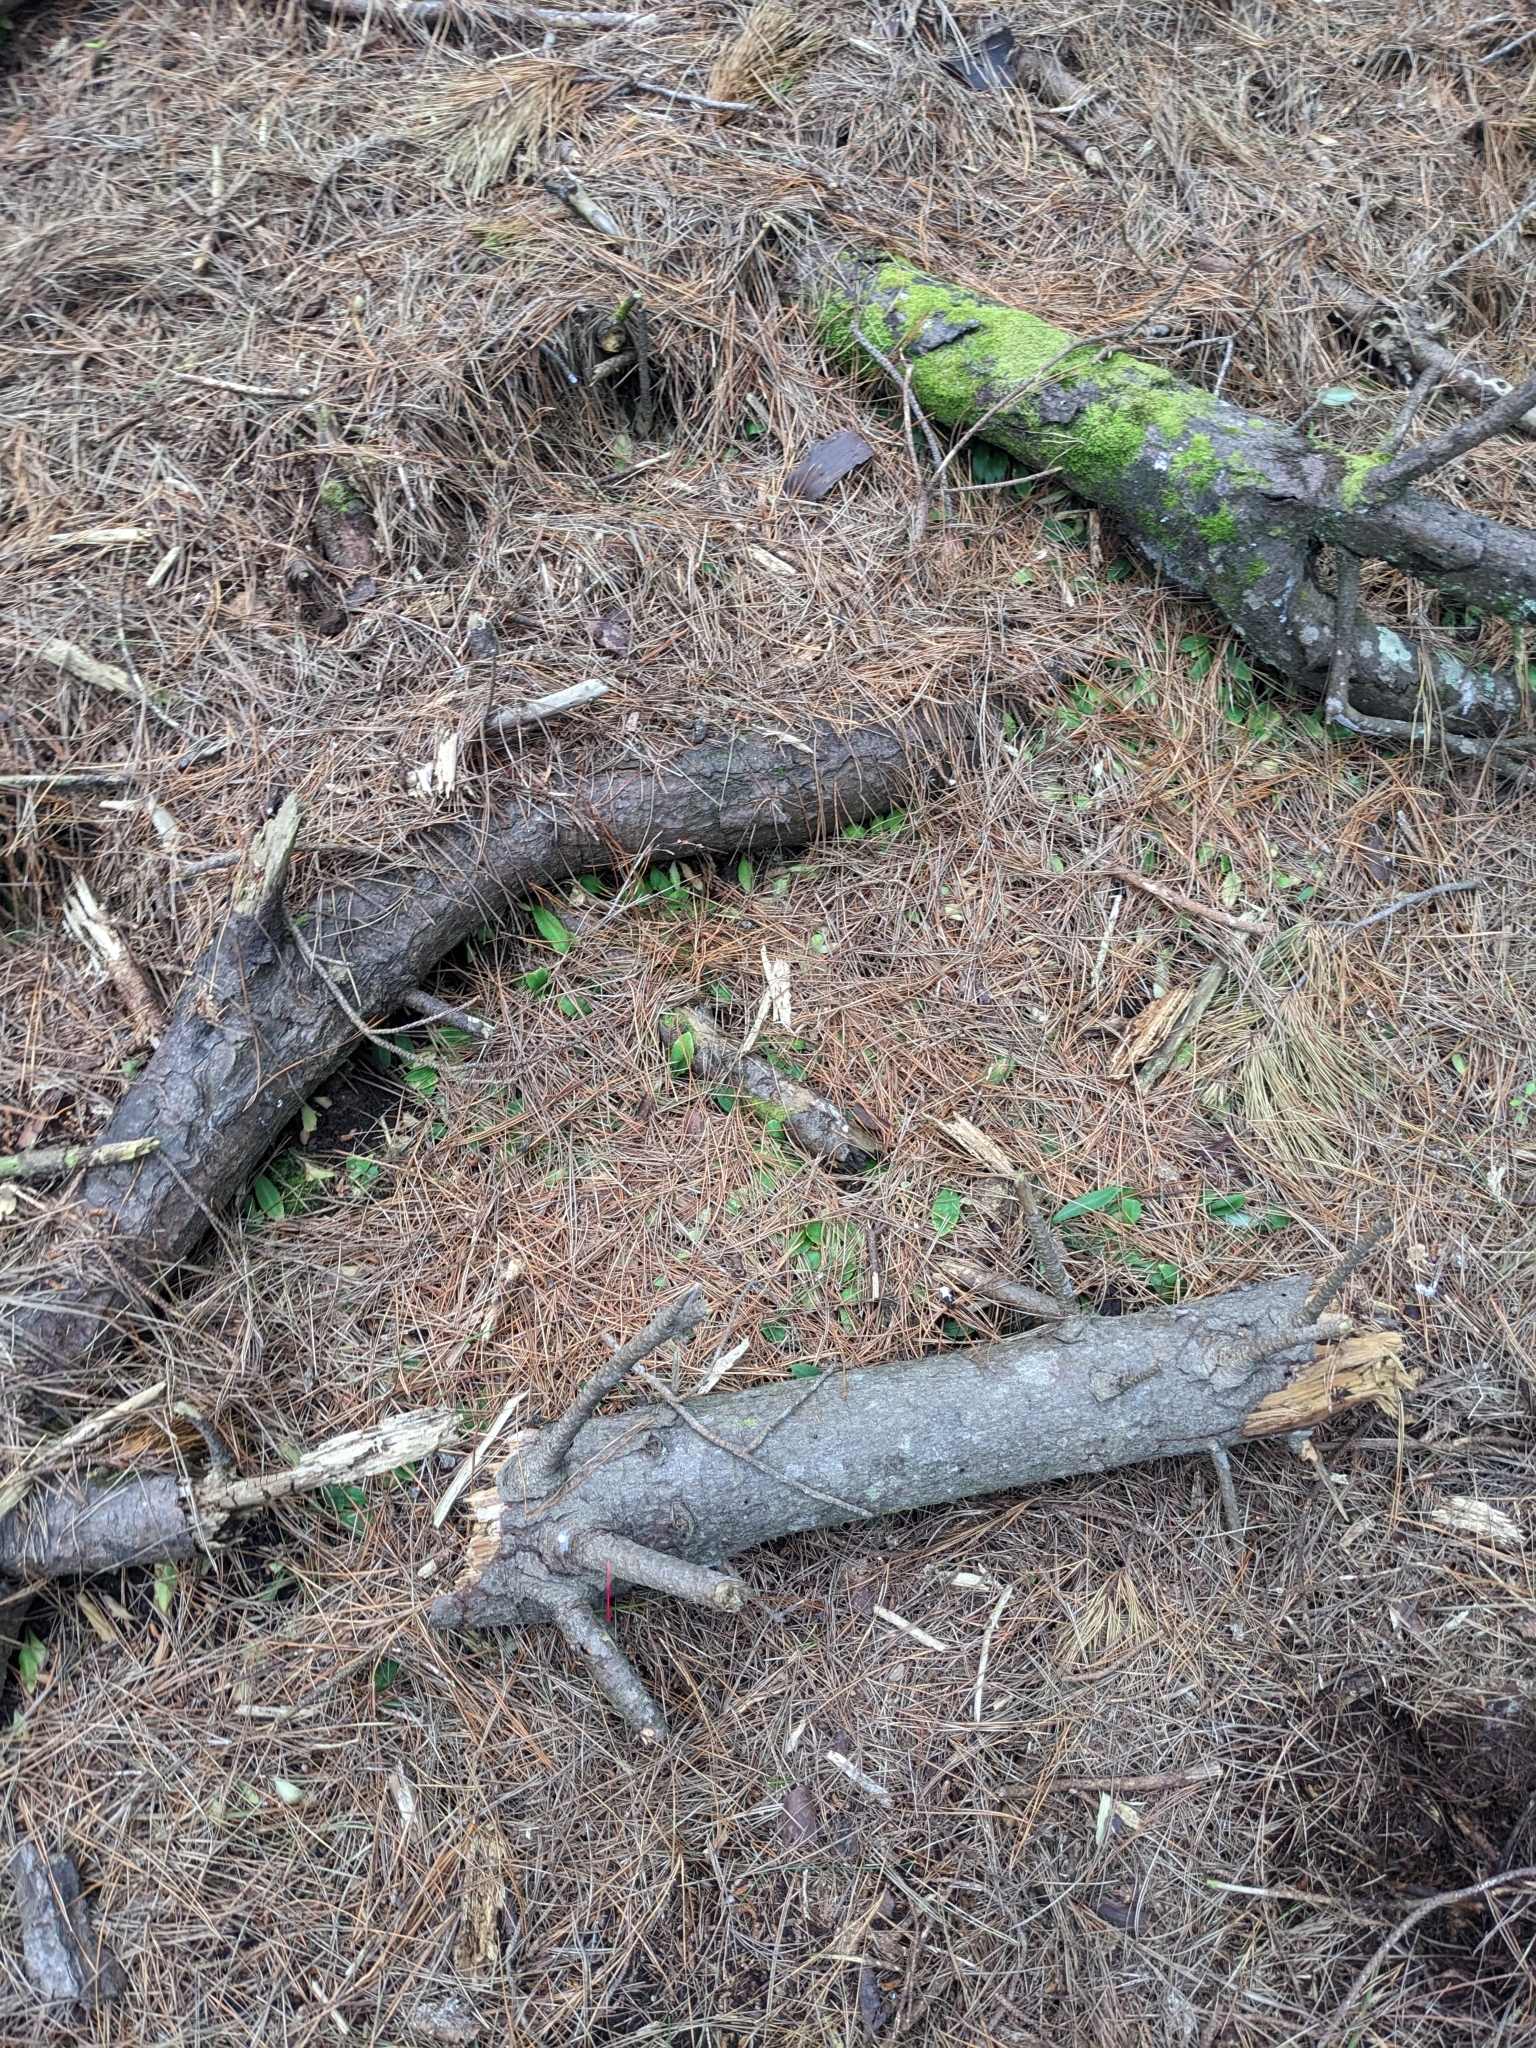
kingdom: Plantae
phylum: Tracheophyta
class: Liliopsida
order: Asparagales
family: Orchidaceae
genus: Chiloglottis
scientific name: Chiloglottis trapeziformis
